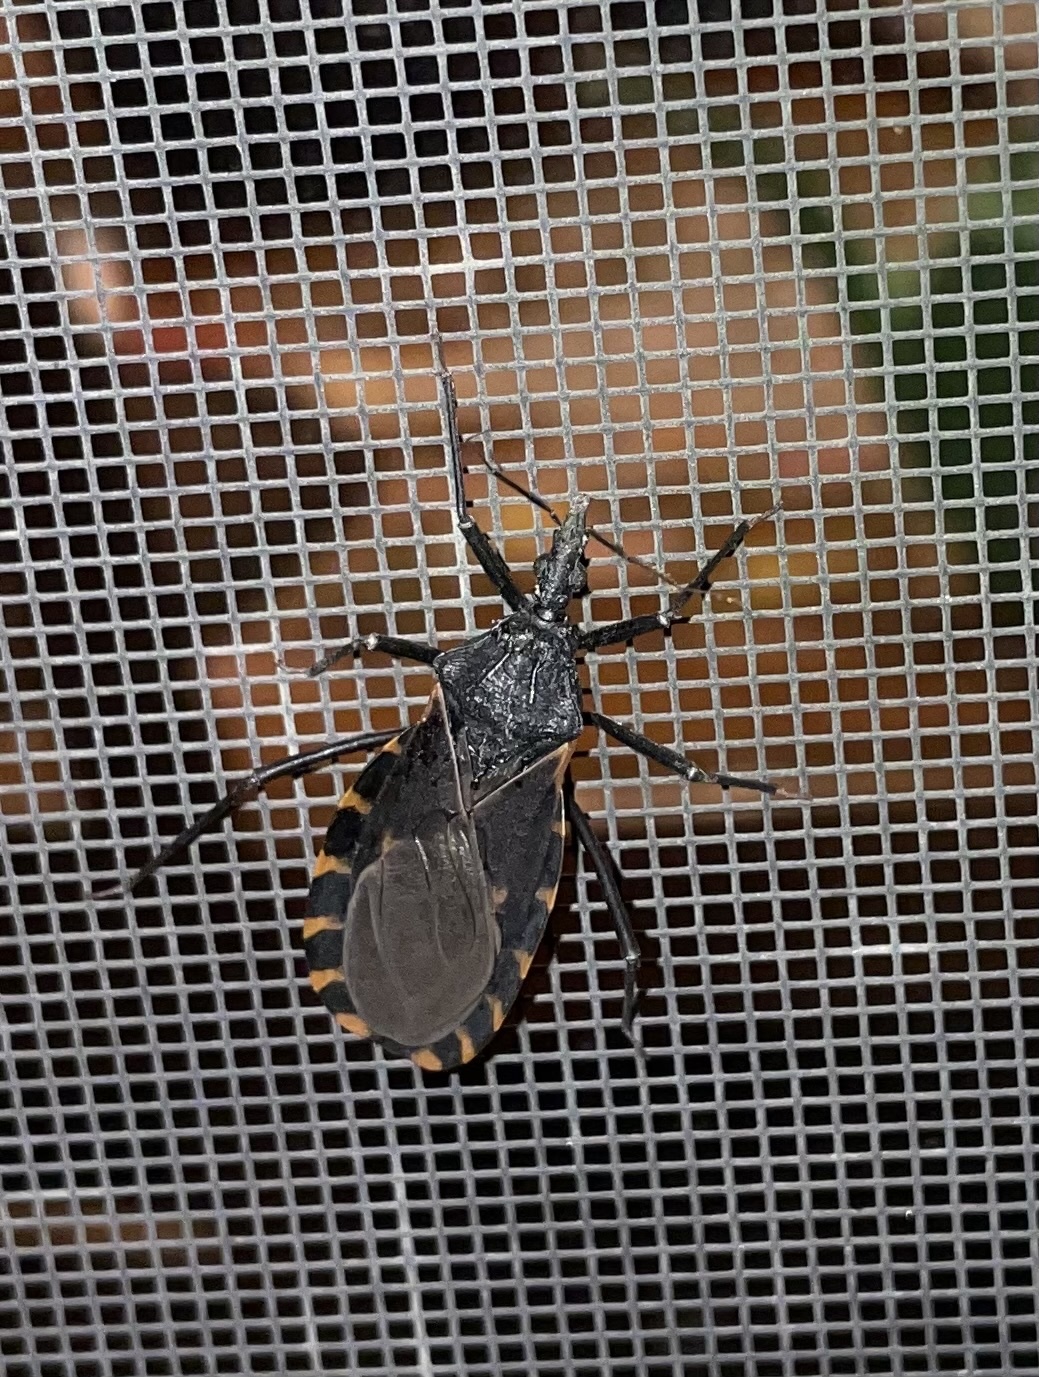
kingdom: Animalia
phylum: Arthropoda
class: Insecta
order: Hemiptera
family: Reduviidae
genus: Triatoma
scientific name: Triatoma gerstaeckeri
